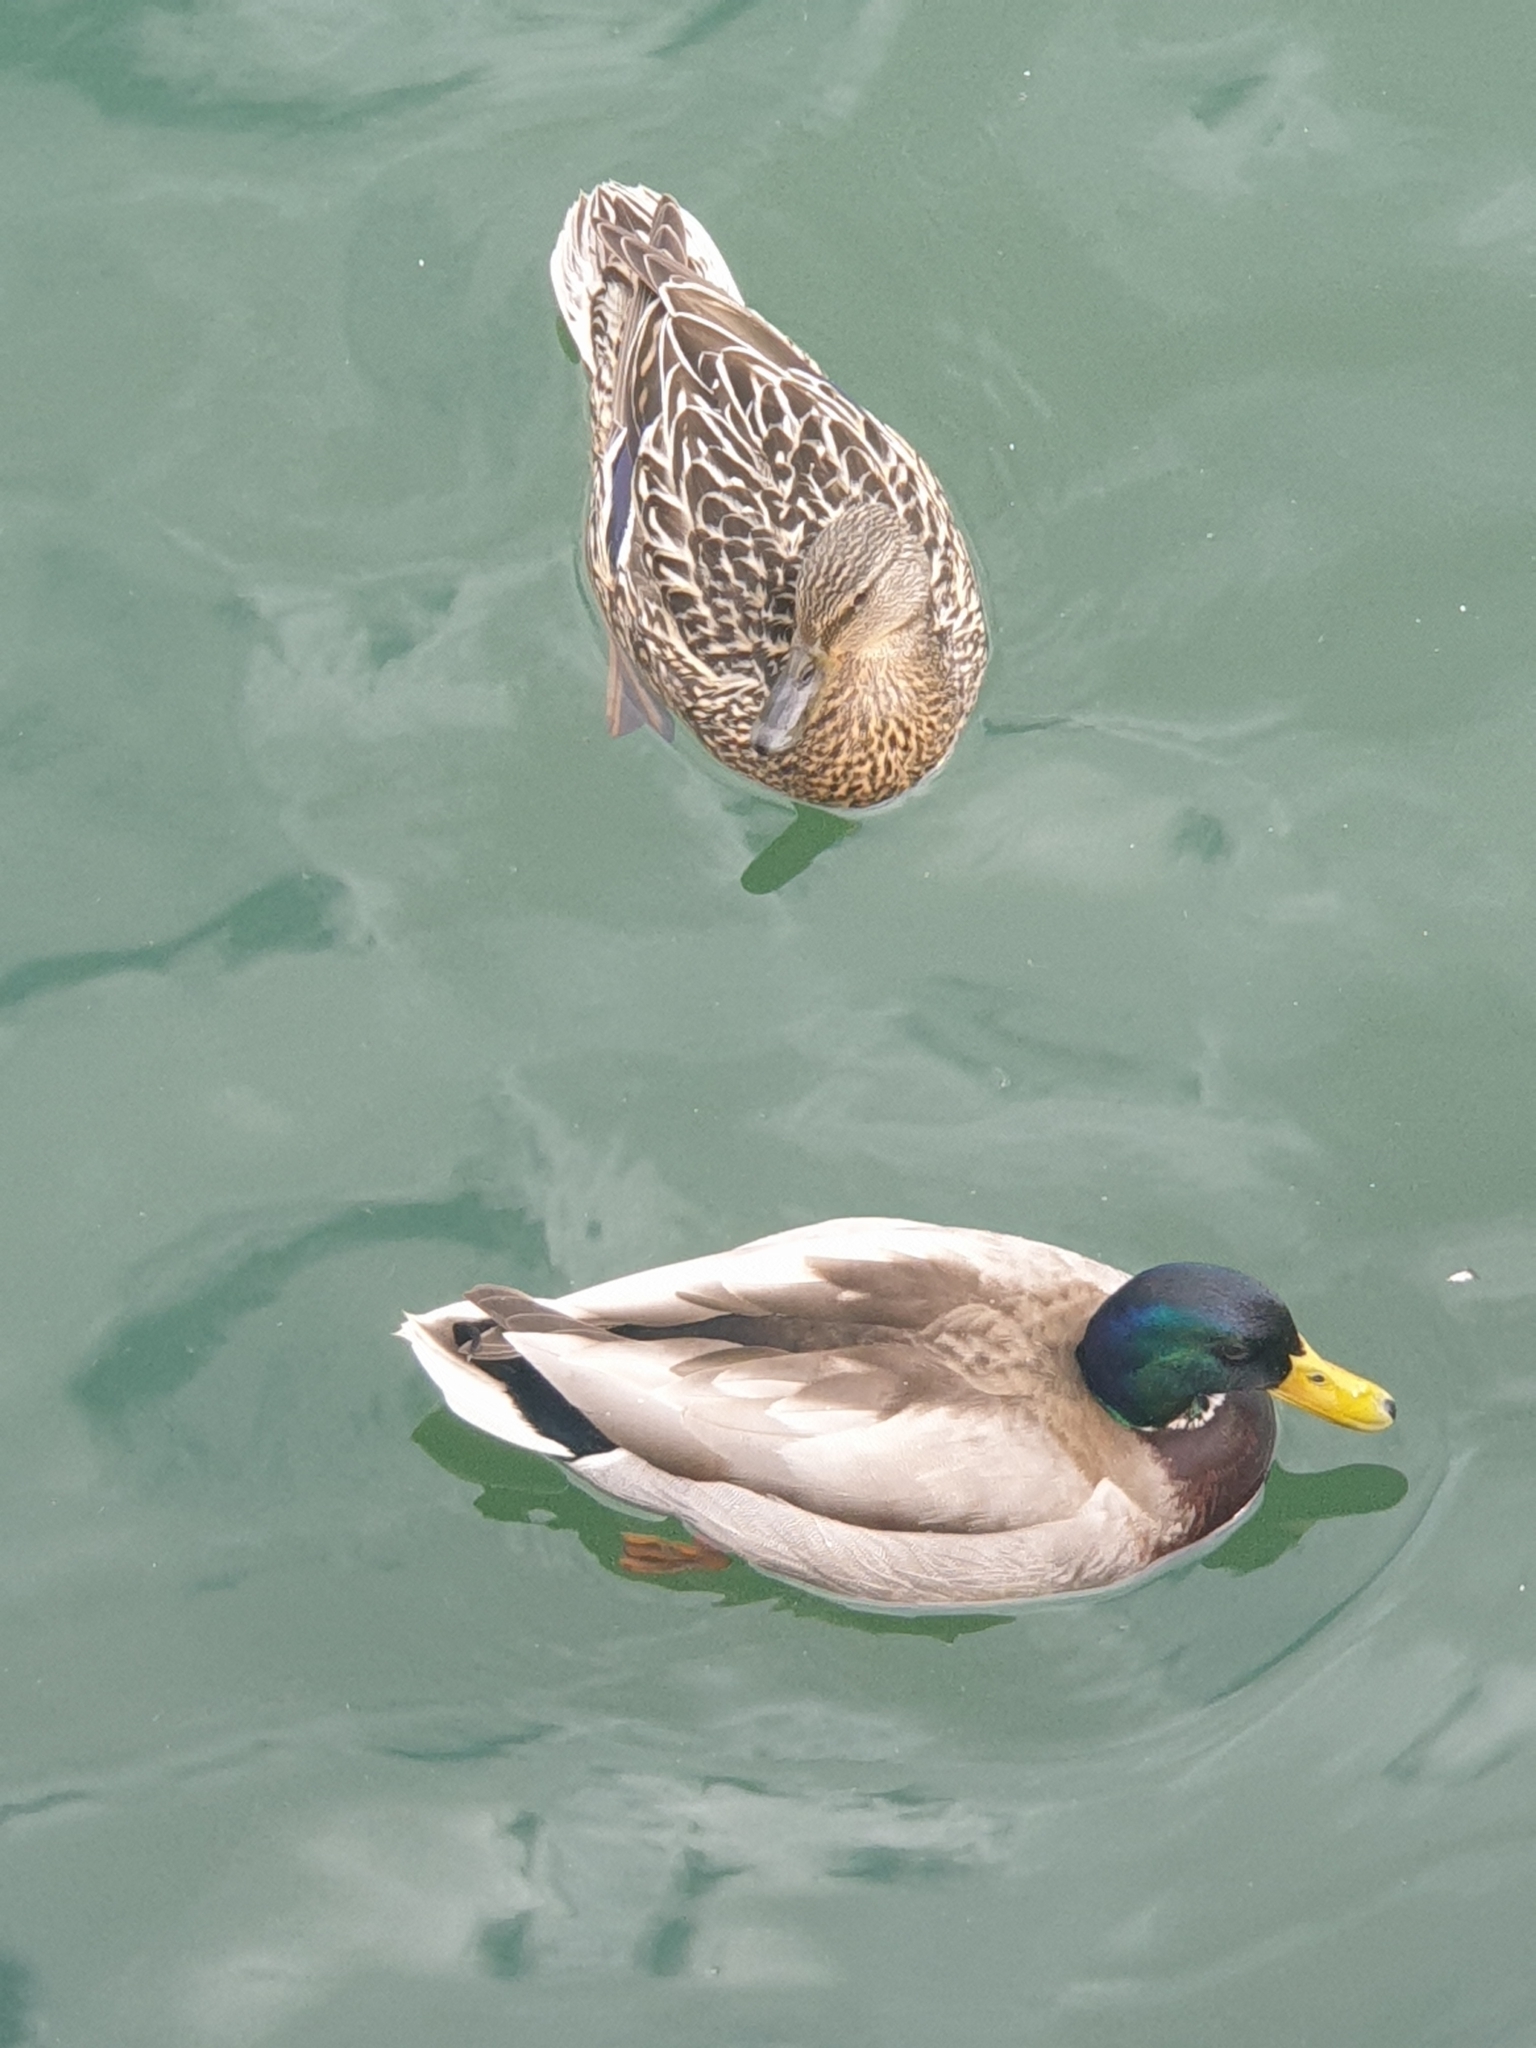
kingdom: Animalia
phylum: Chordata
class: Aves
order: Anseriformes
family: Anatidae
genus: Anas
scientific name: Anas platyrhynchos
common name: Mallard
